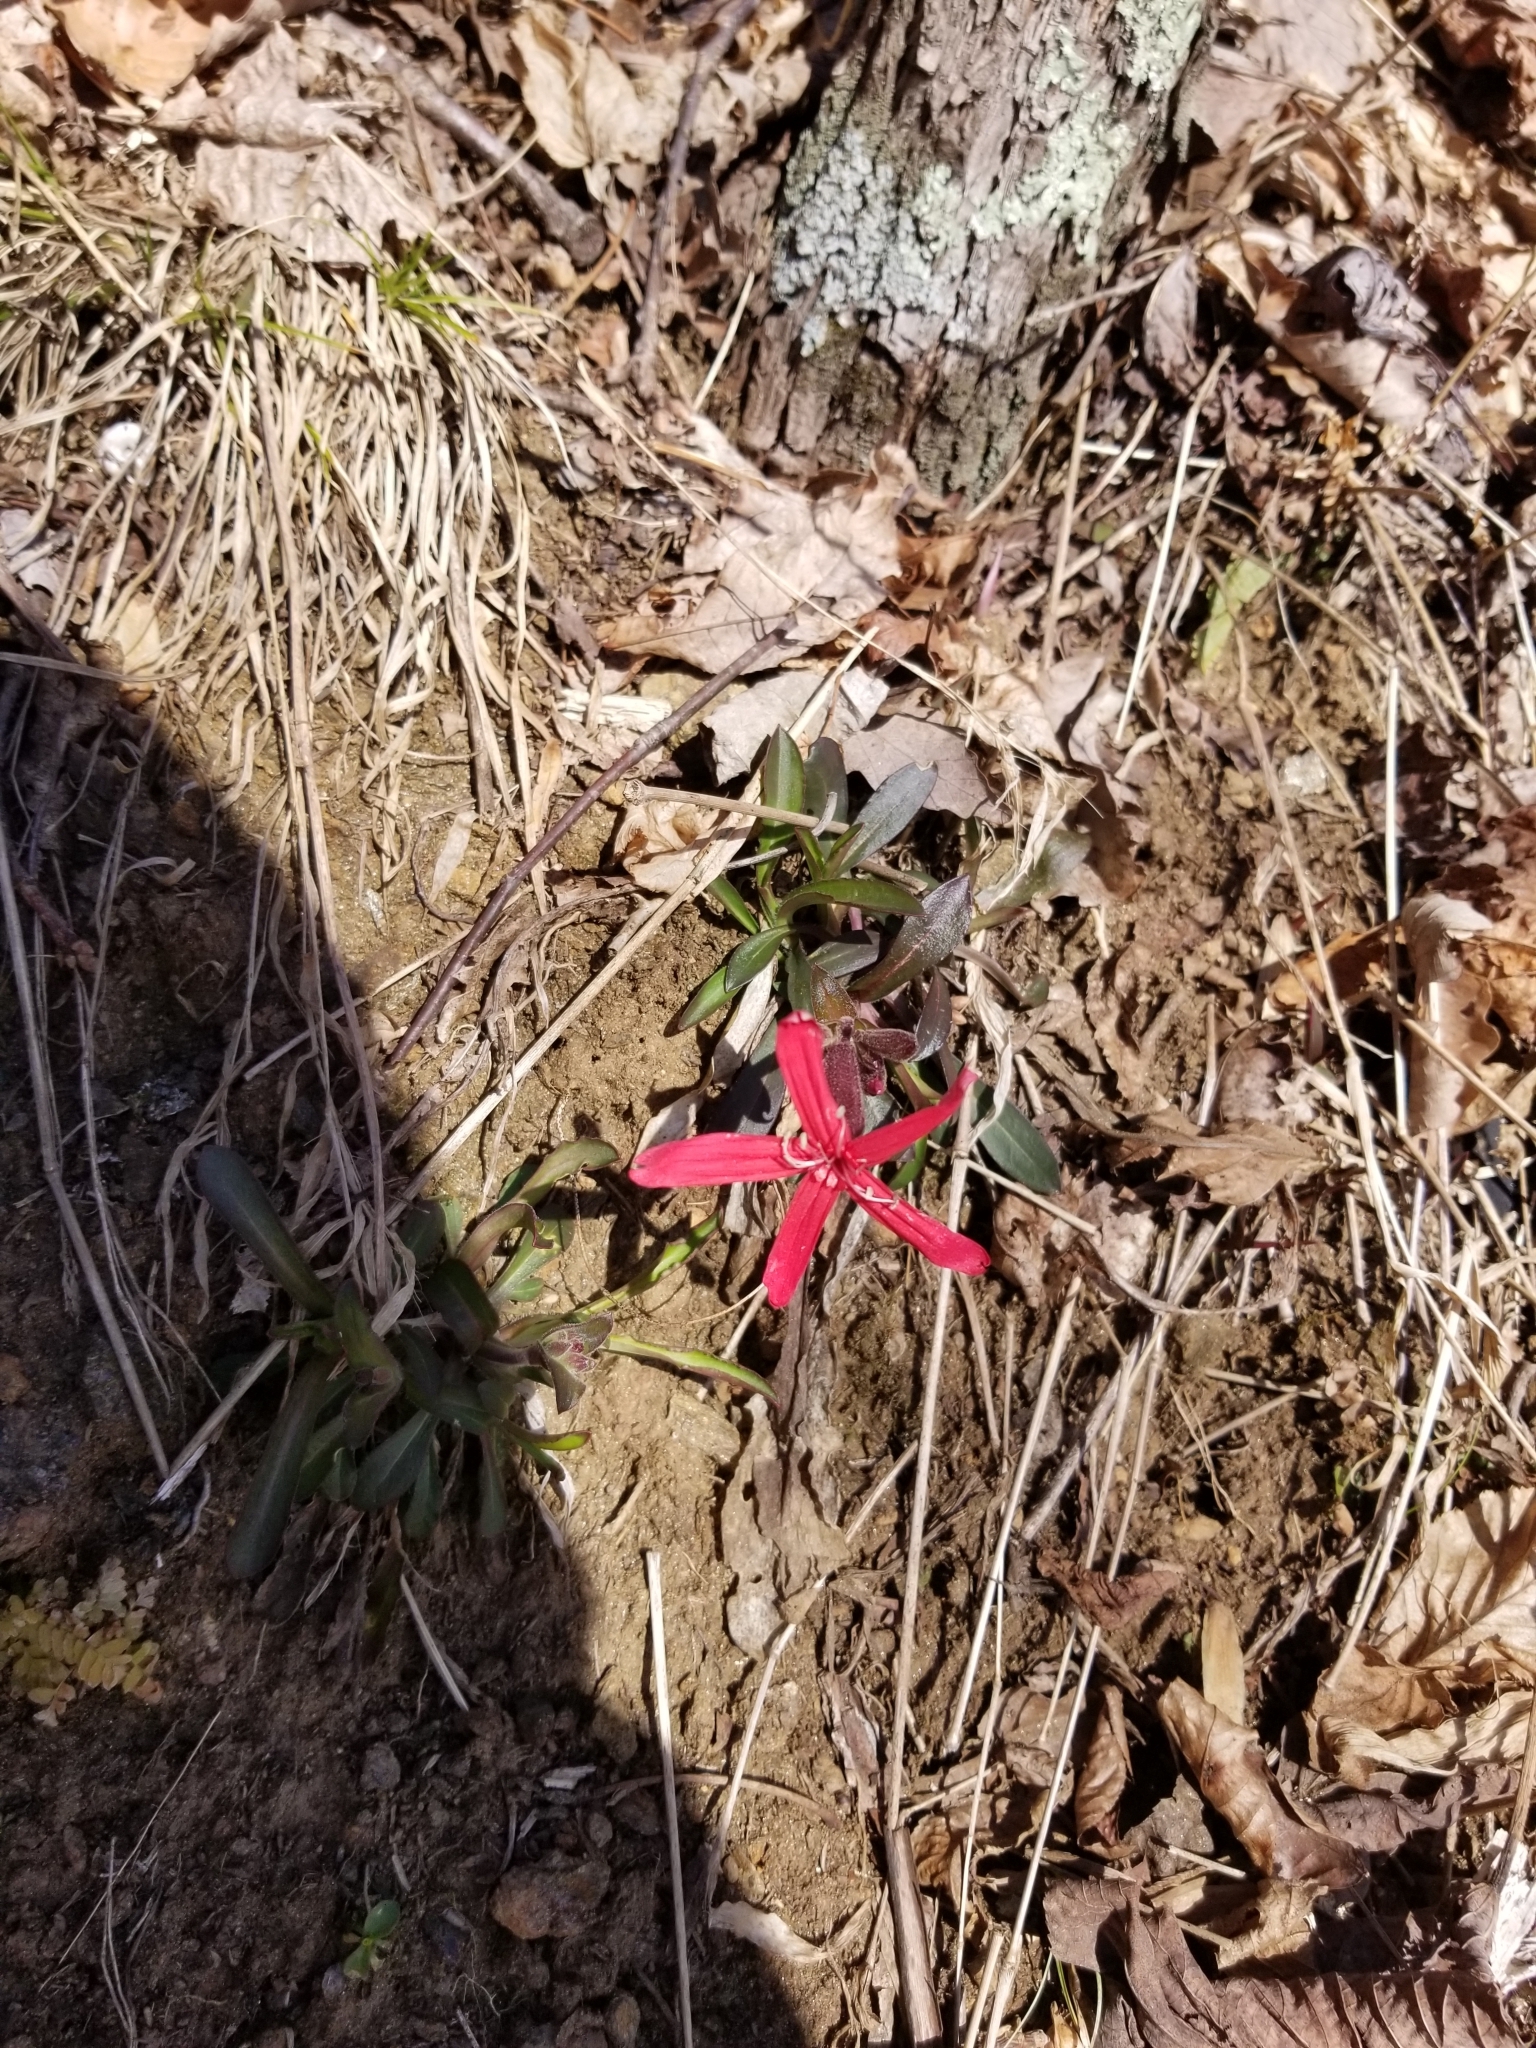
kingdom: Plantae
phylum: Tracheophyta
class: Magnoliopsida
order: Caryophyllales
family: Caryophyllaceae
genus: Silene
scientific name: Silene virginica
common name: Fire-pink
